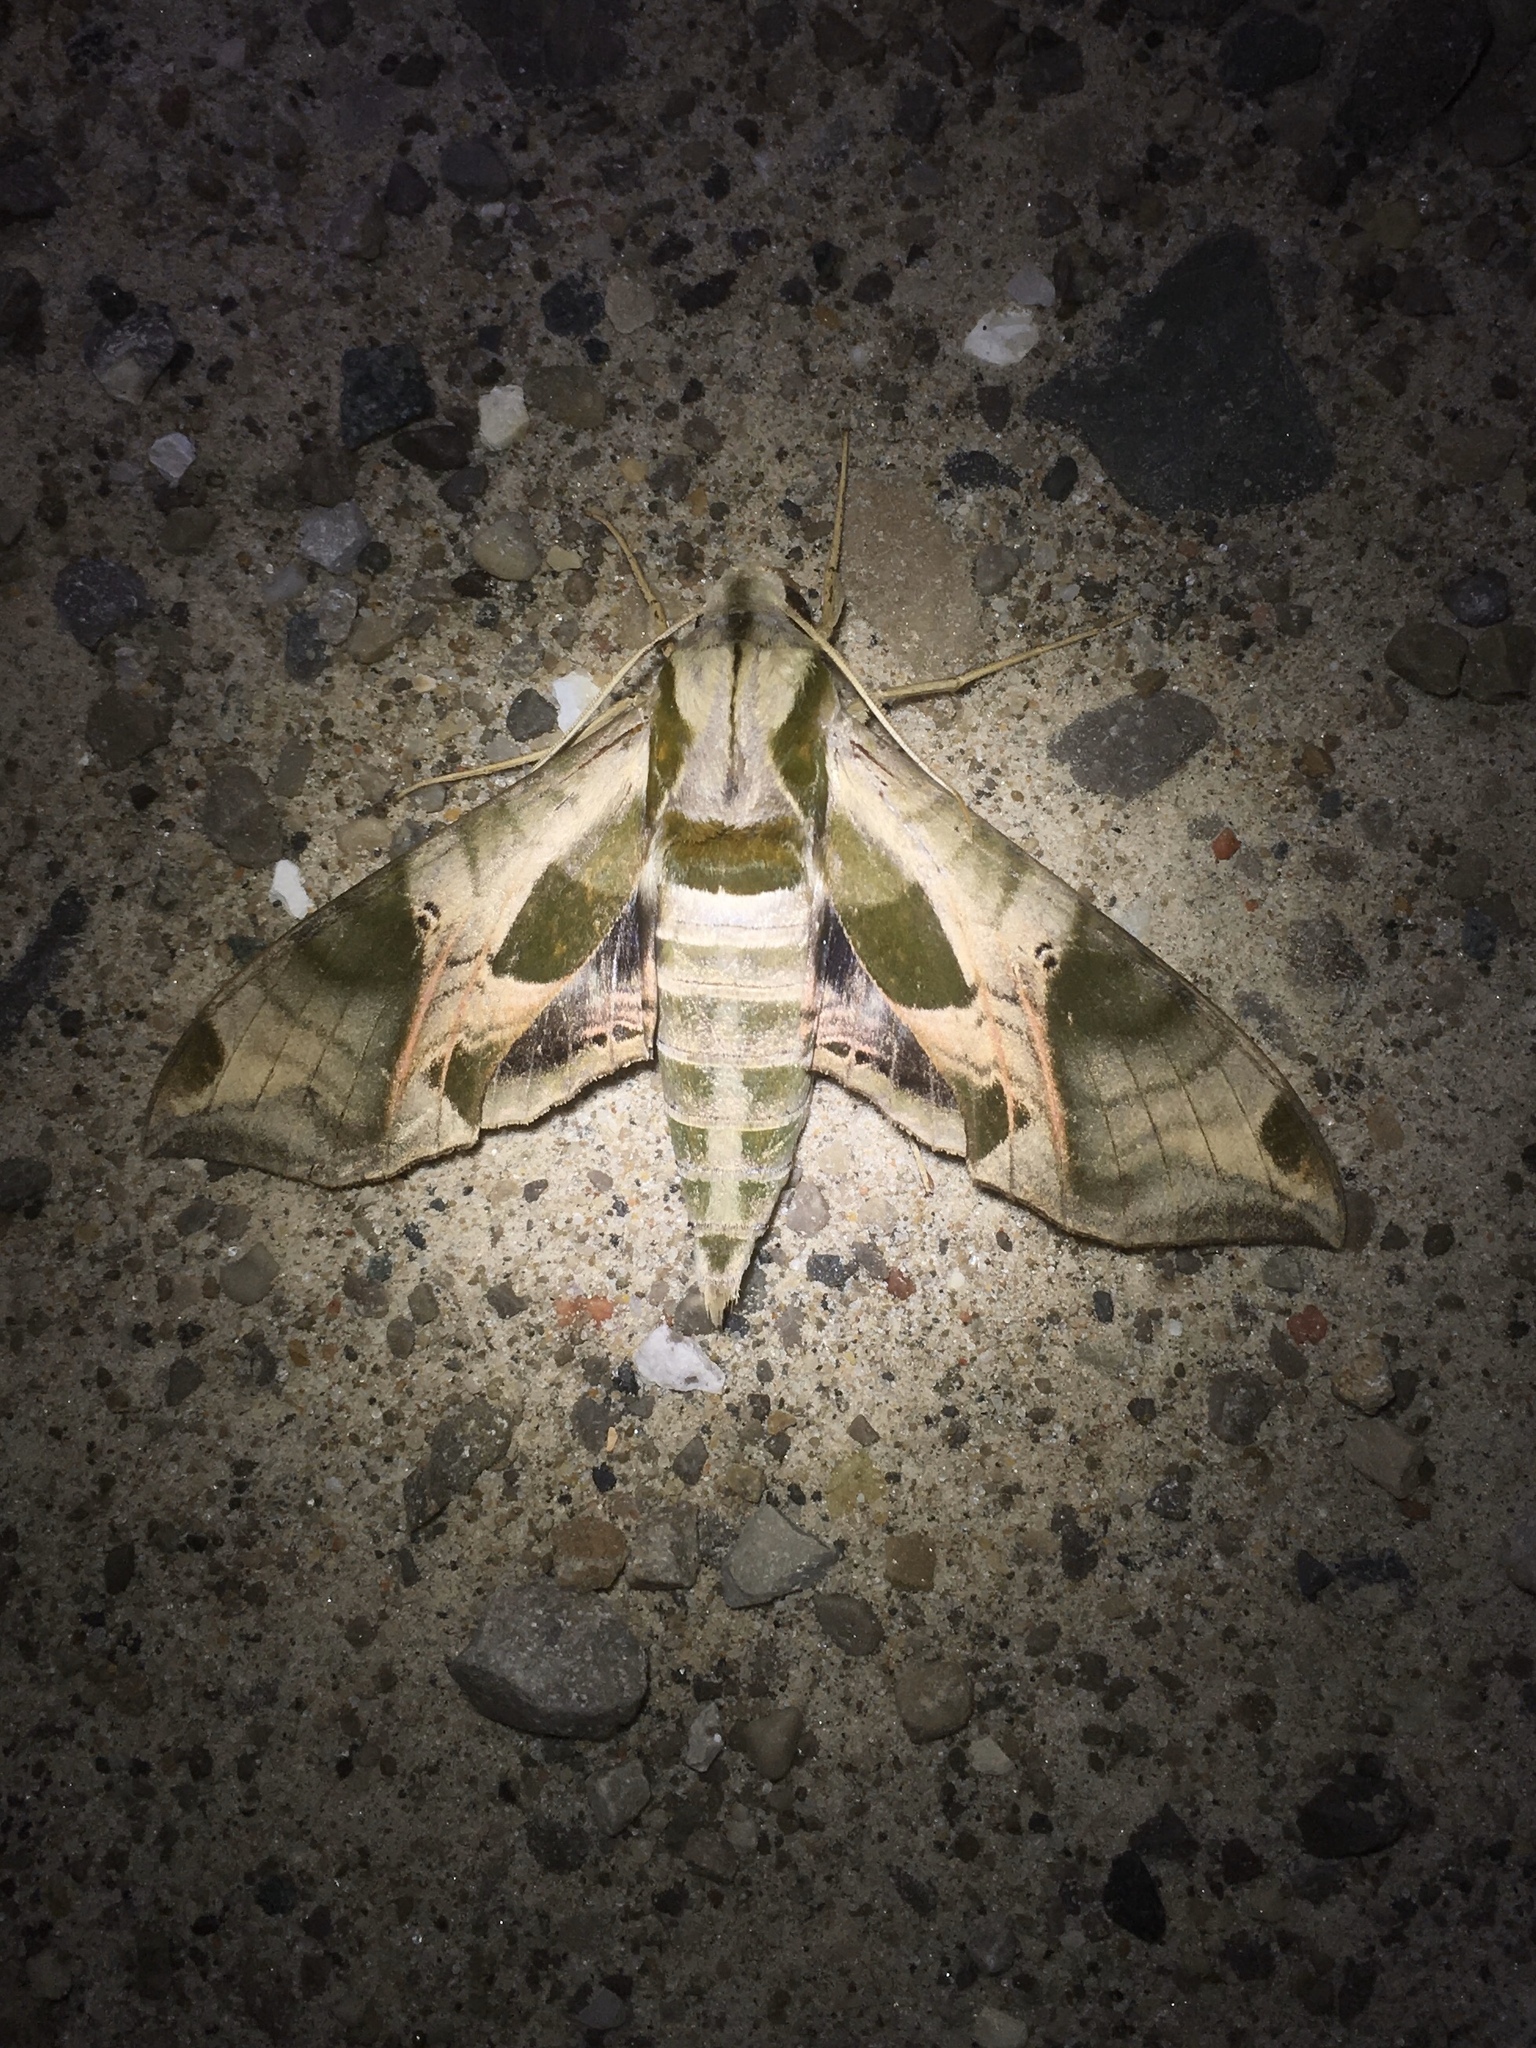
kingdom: Animalia
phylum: Arthropoda
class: Insecta
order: Lepidoptera
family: Sphingidae
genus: Eumorpha
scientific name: Eumorpha pandorus
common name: Pandora sphinx
